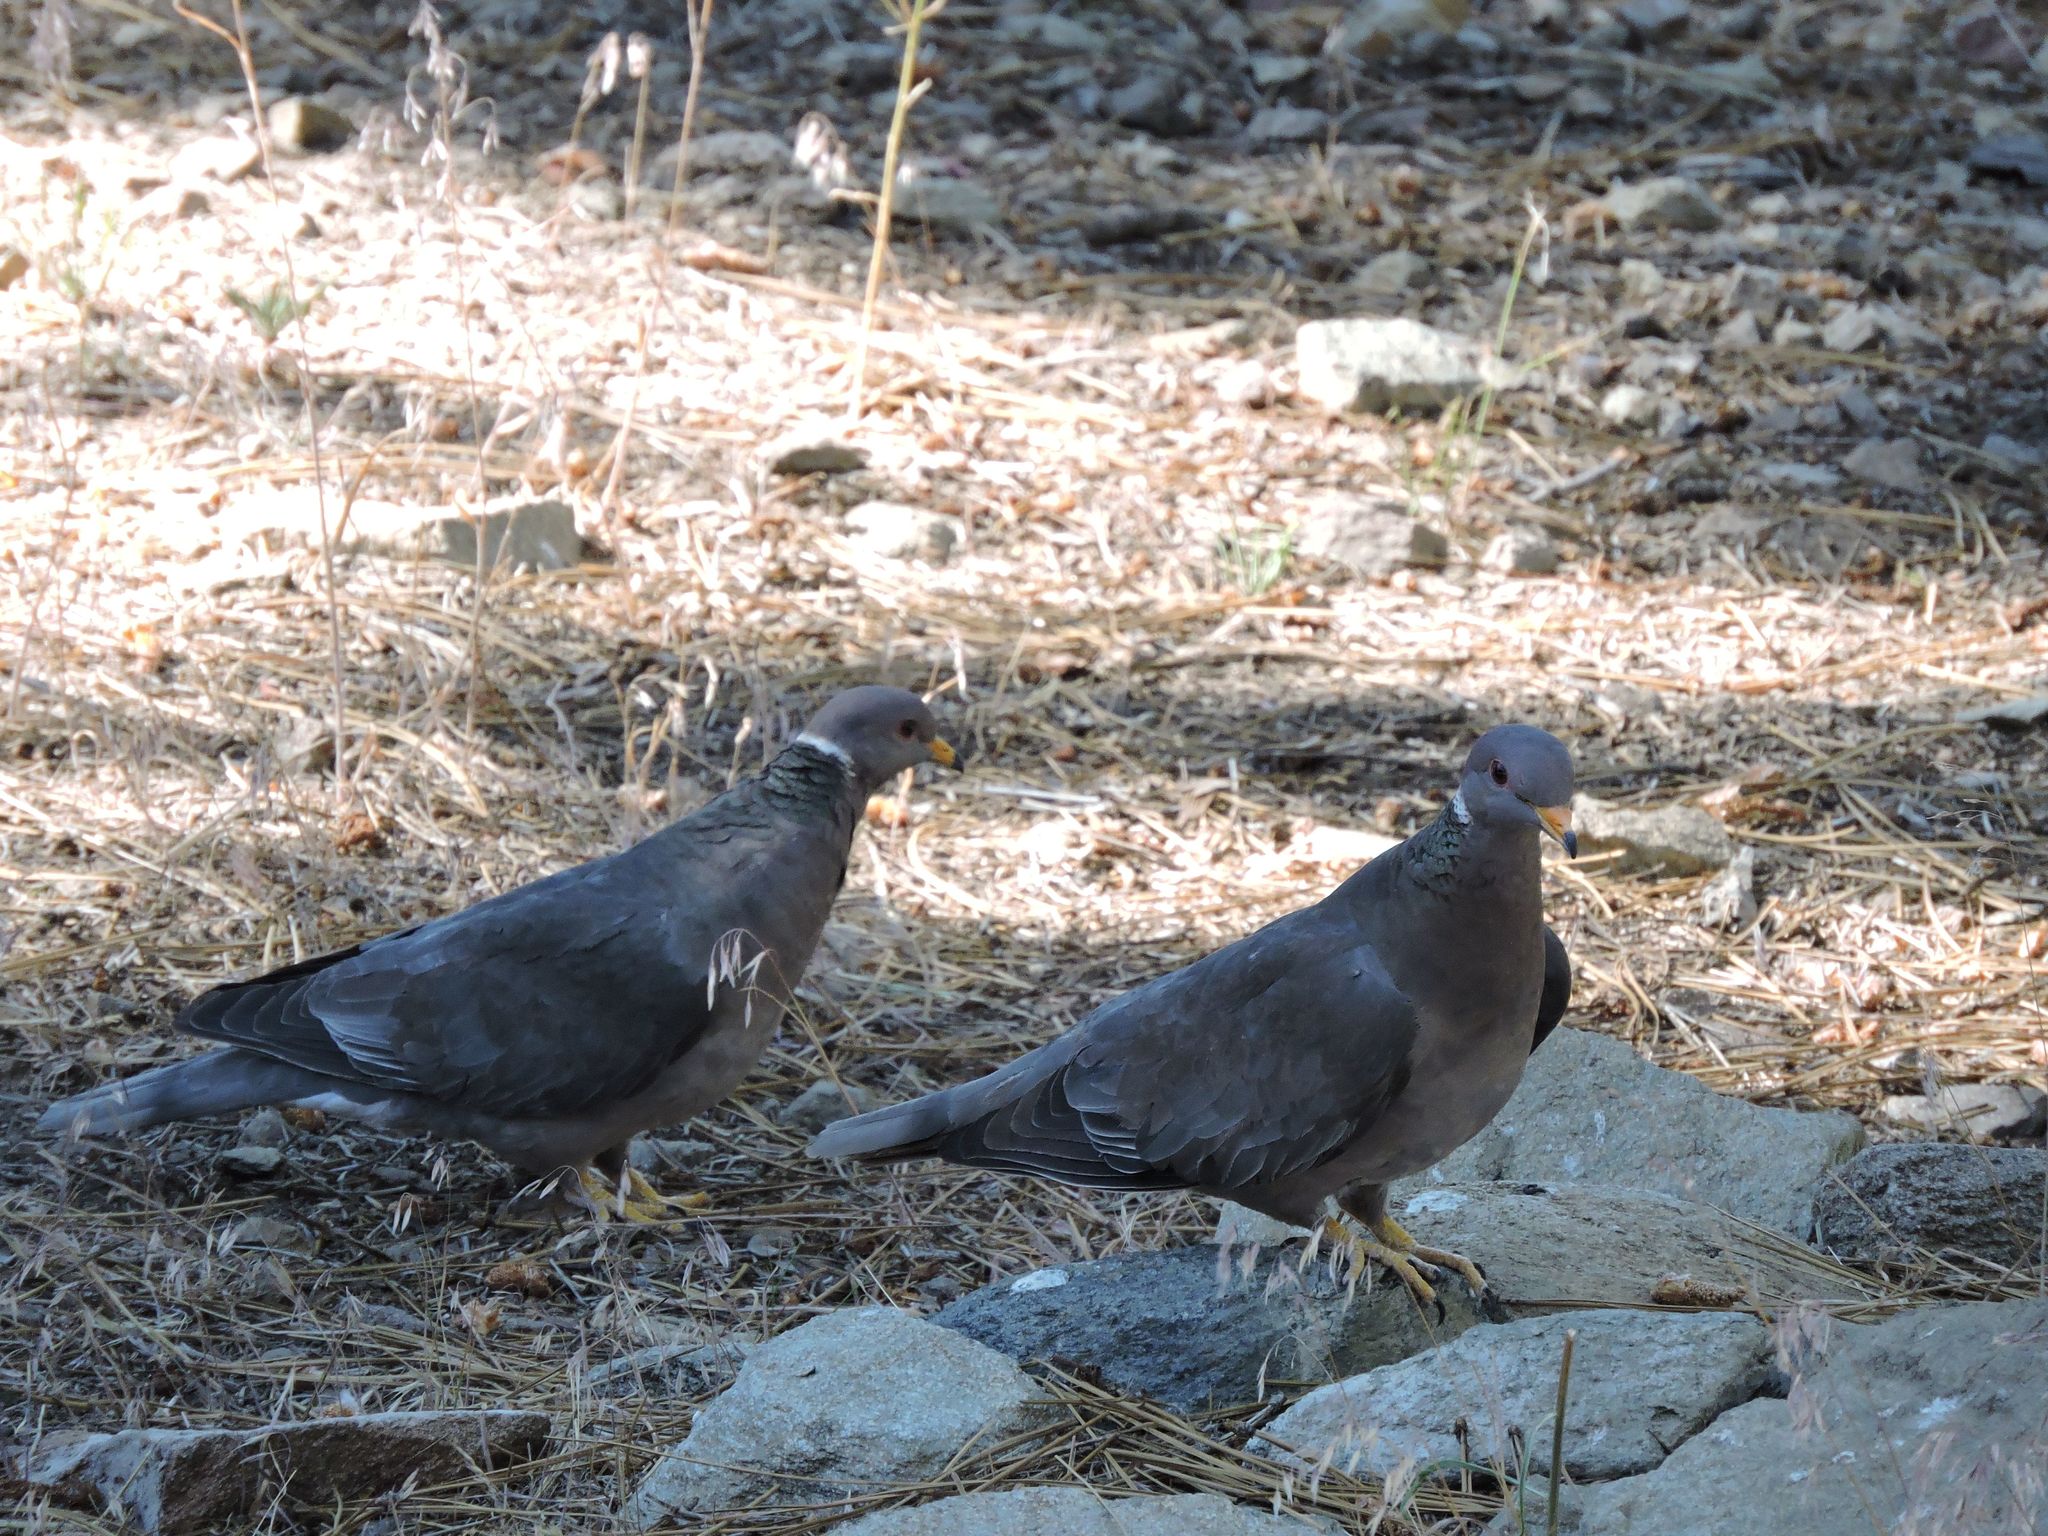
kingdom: Animalia
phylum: Chordata
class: Aves
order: Columbiformes
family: Columbidae
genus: Patagioenas
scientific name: Patagioenas fasciata
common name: Band-tailed pigeon
